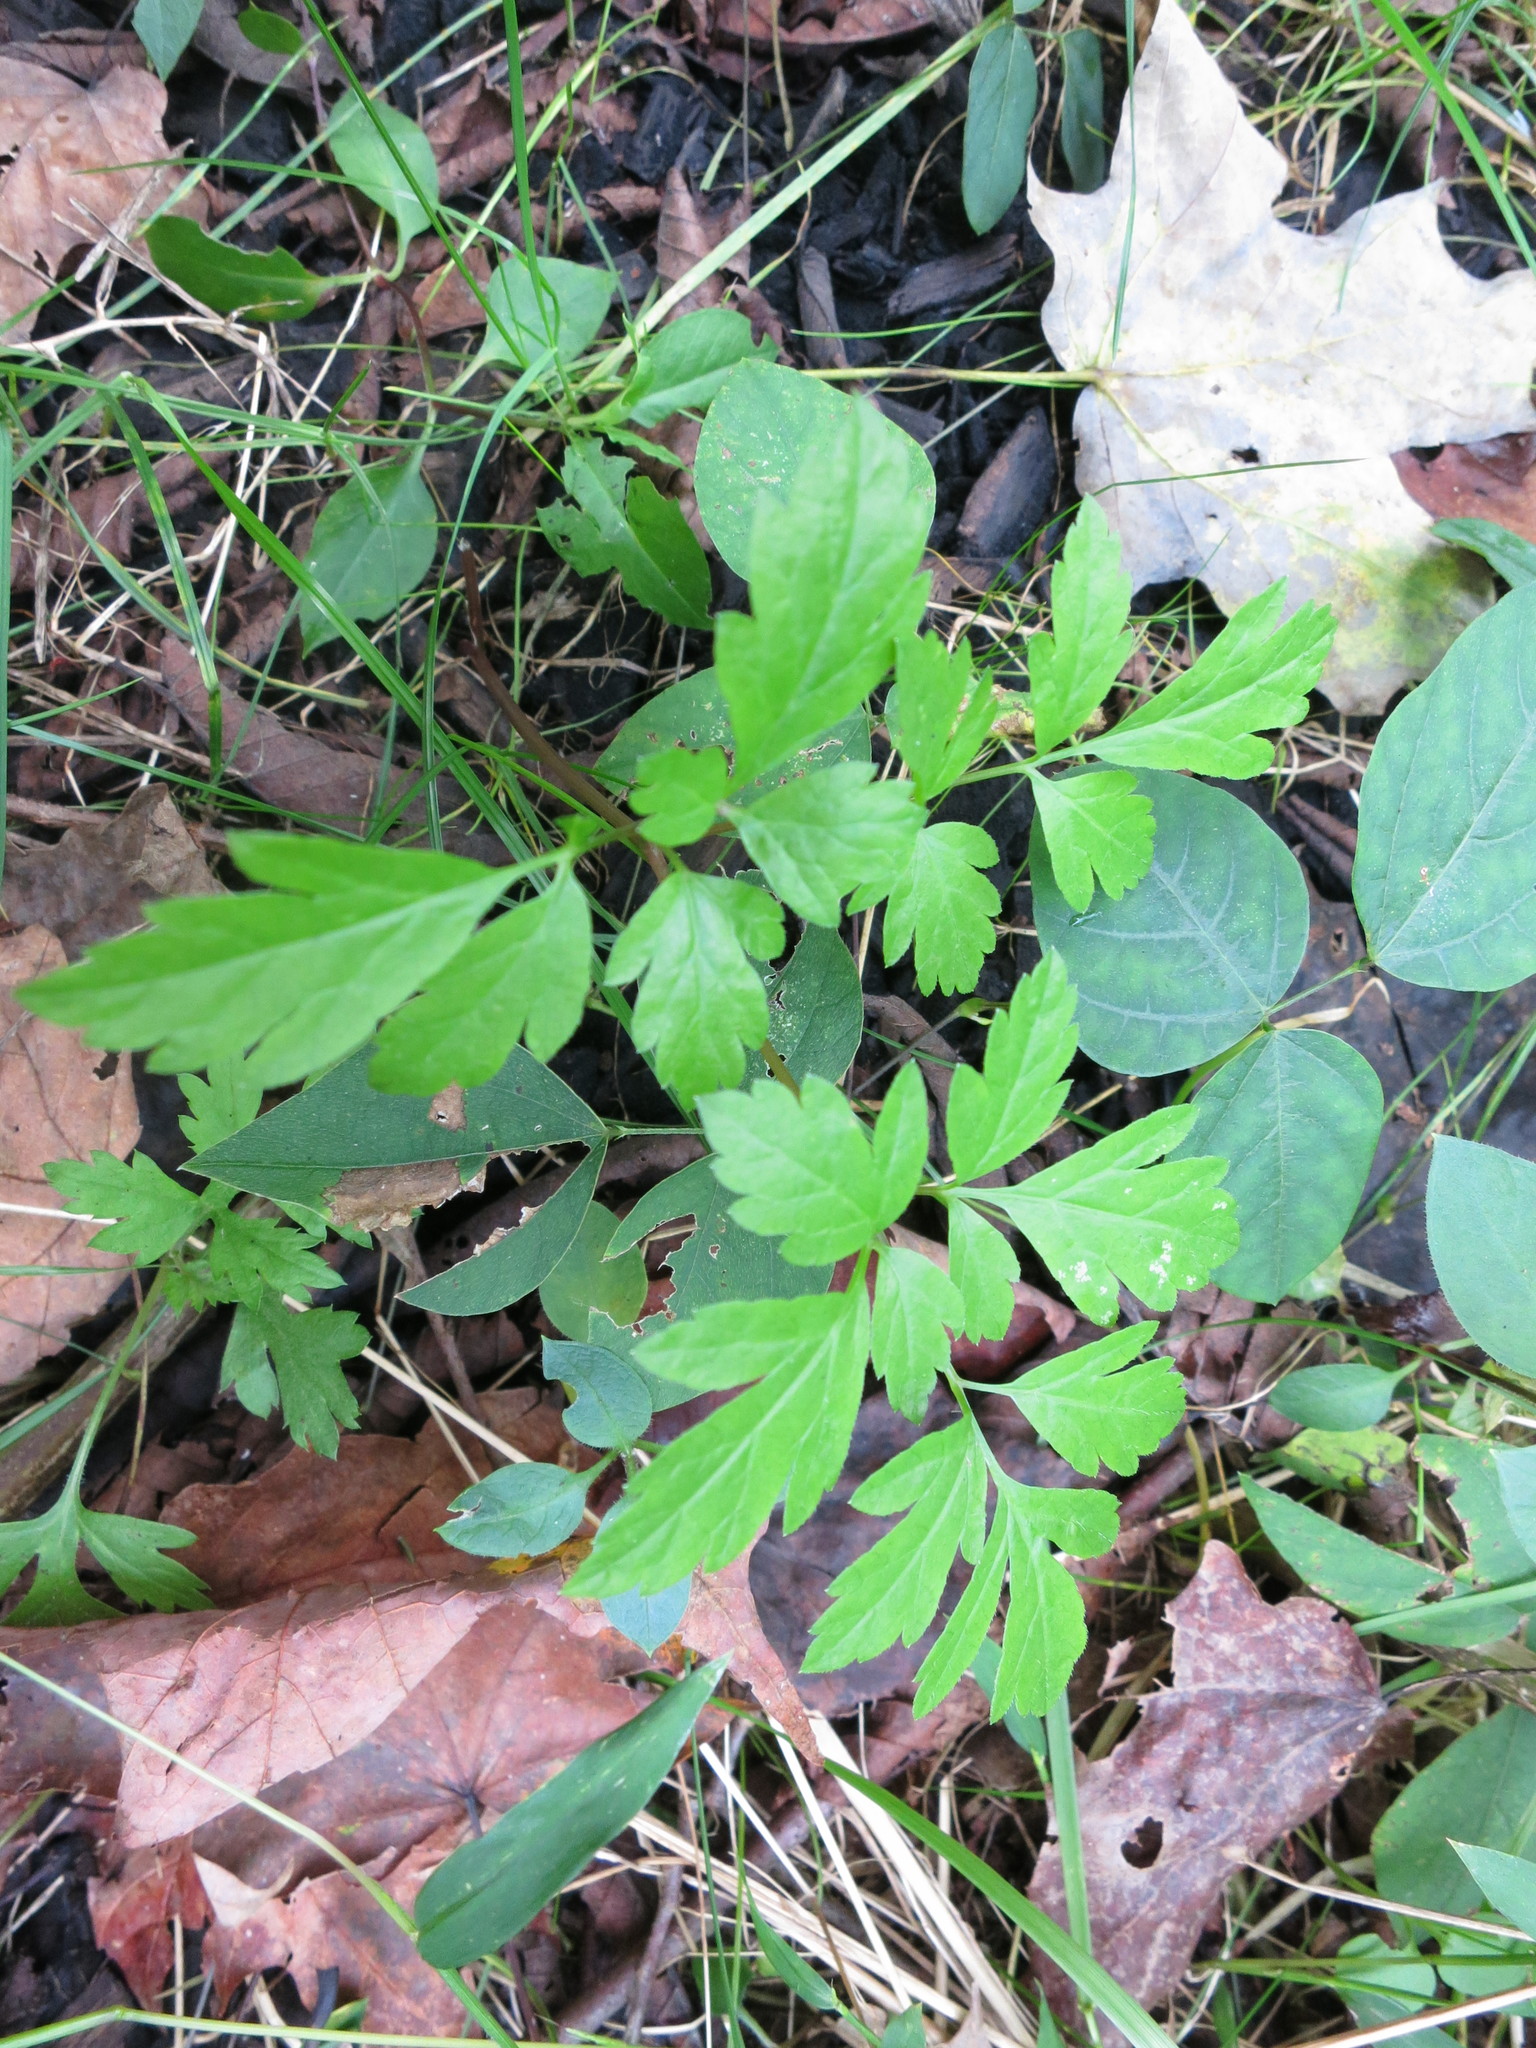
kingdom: Plantae
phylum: Tracheophyta
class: Magnoliopsida
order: Apiales
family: Apiaceae
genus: Osmorhiza
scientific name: Osmorhiza longistylis
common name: Smooth sweet cicely
